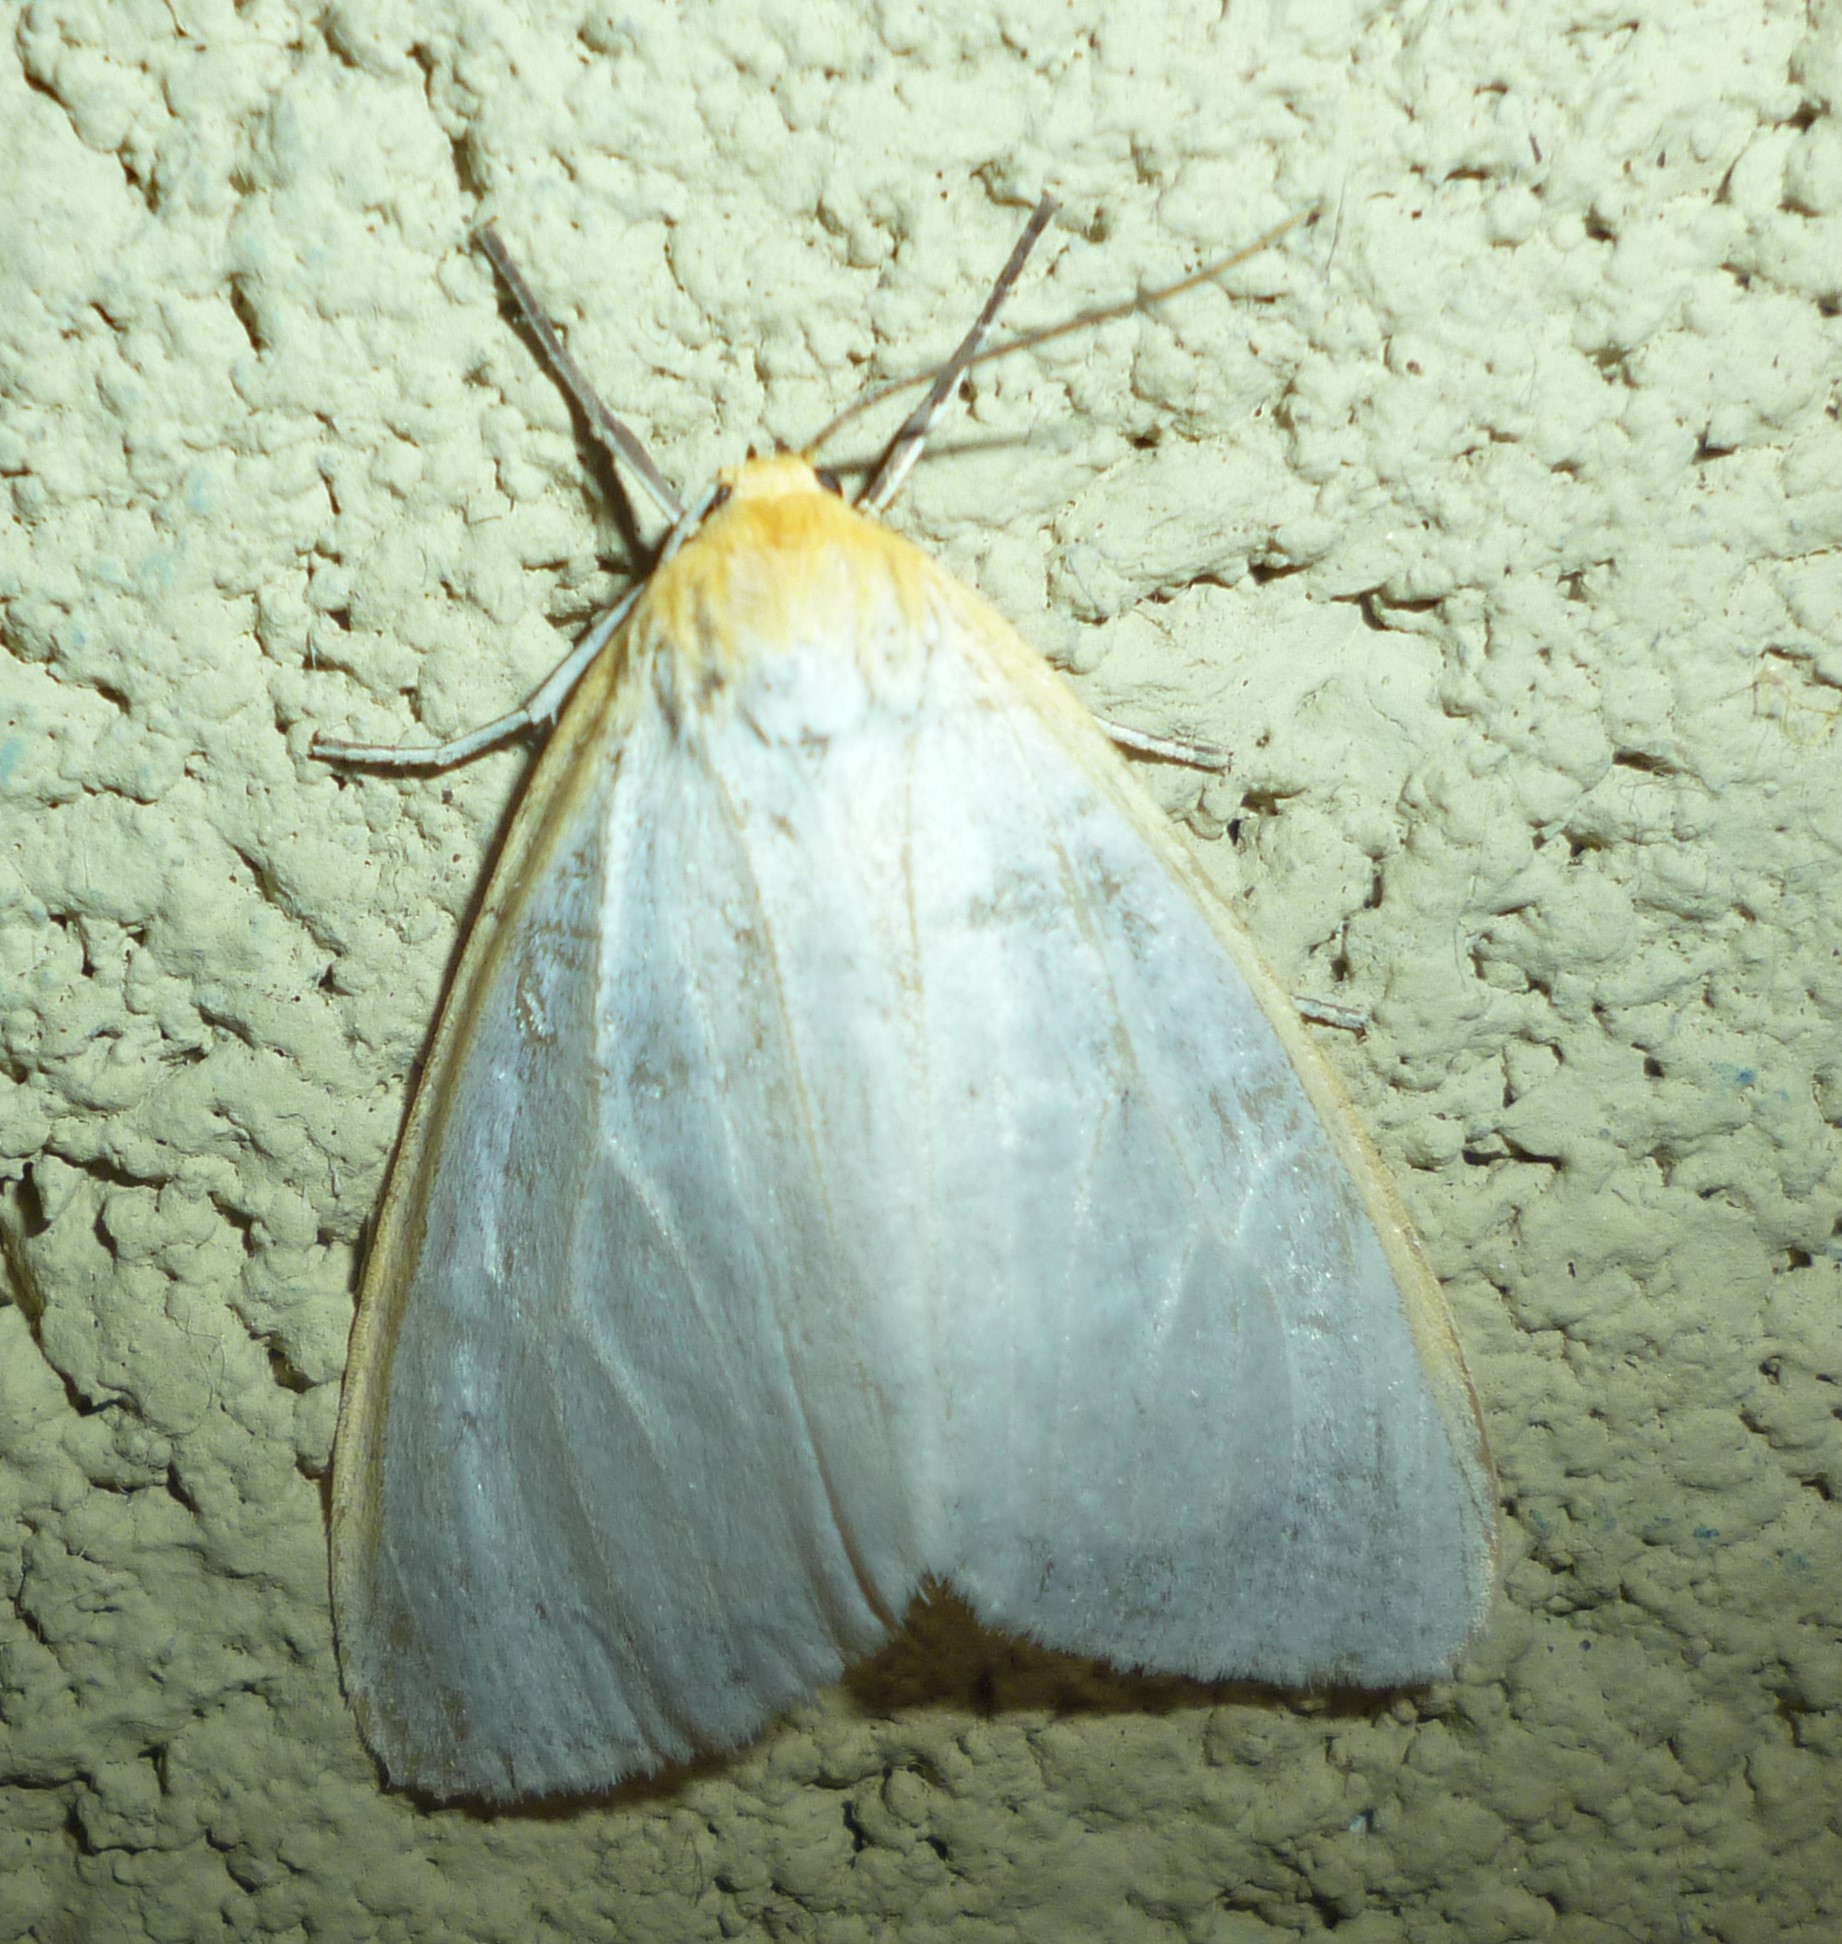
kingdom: Animalia
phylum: Arthropoda
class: Insecta
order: Lepidoptera
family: Erebidae
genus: Cycnia
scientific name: Cycnia tenera
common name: Delicate cycnia moth
